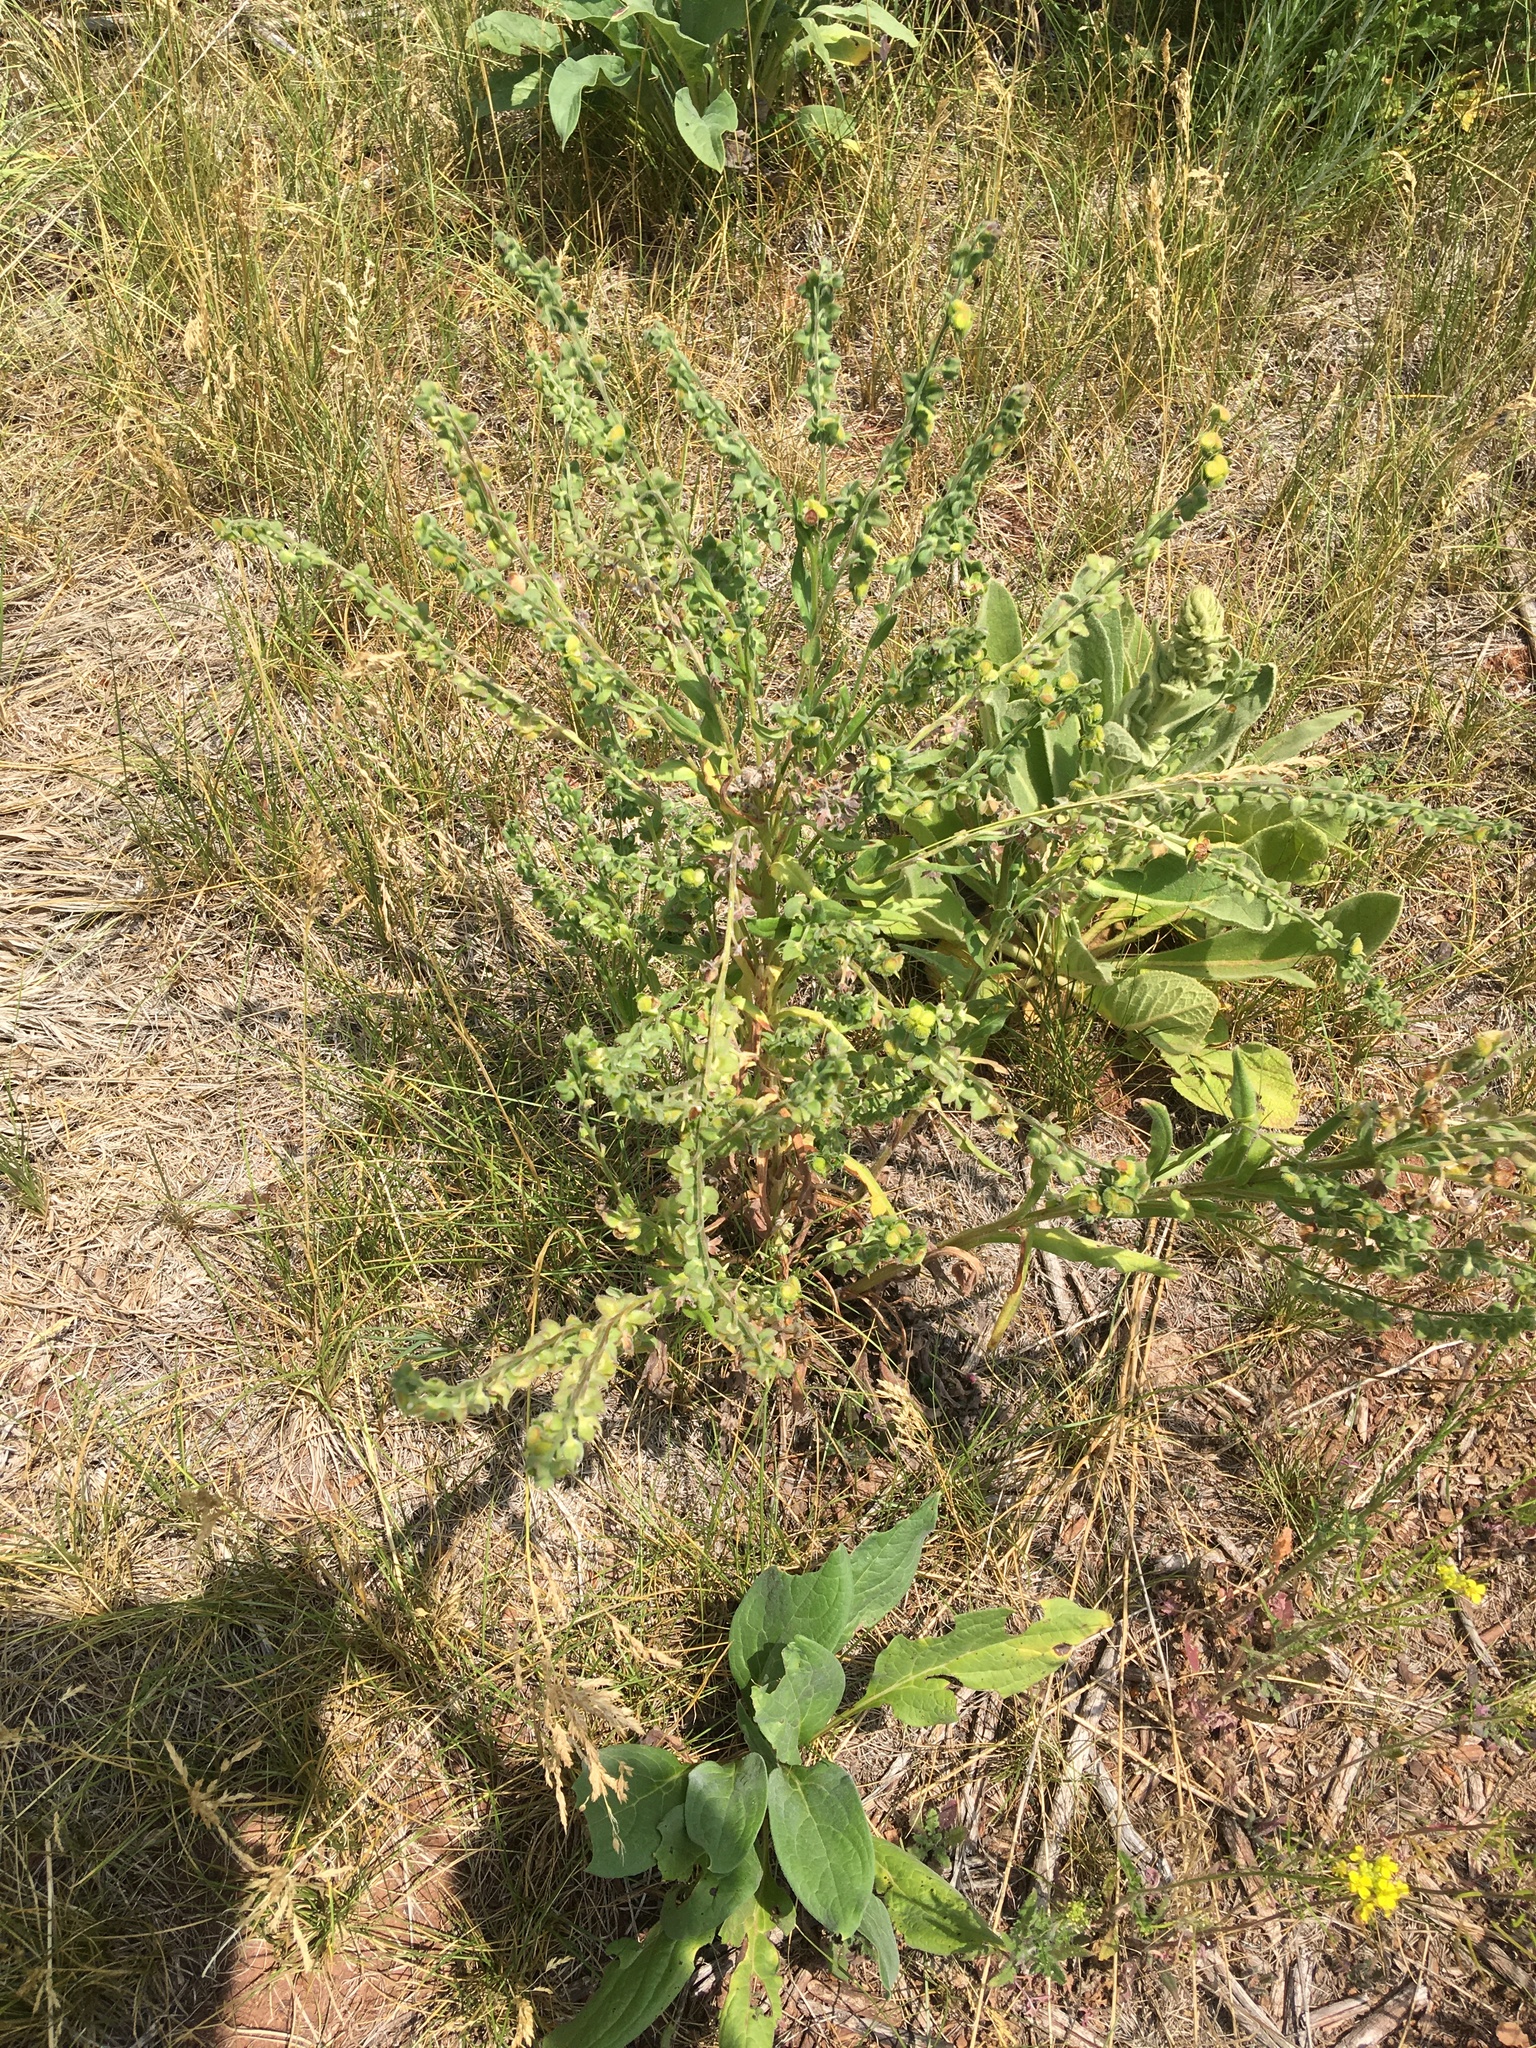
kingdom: Plantae
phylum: Tracheophyta
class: Magnoliopsida
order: Boraginales
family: Boraginaceae
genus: Cynoglossum
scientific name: Cynoglossum officinale
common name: Hound's-tongue
